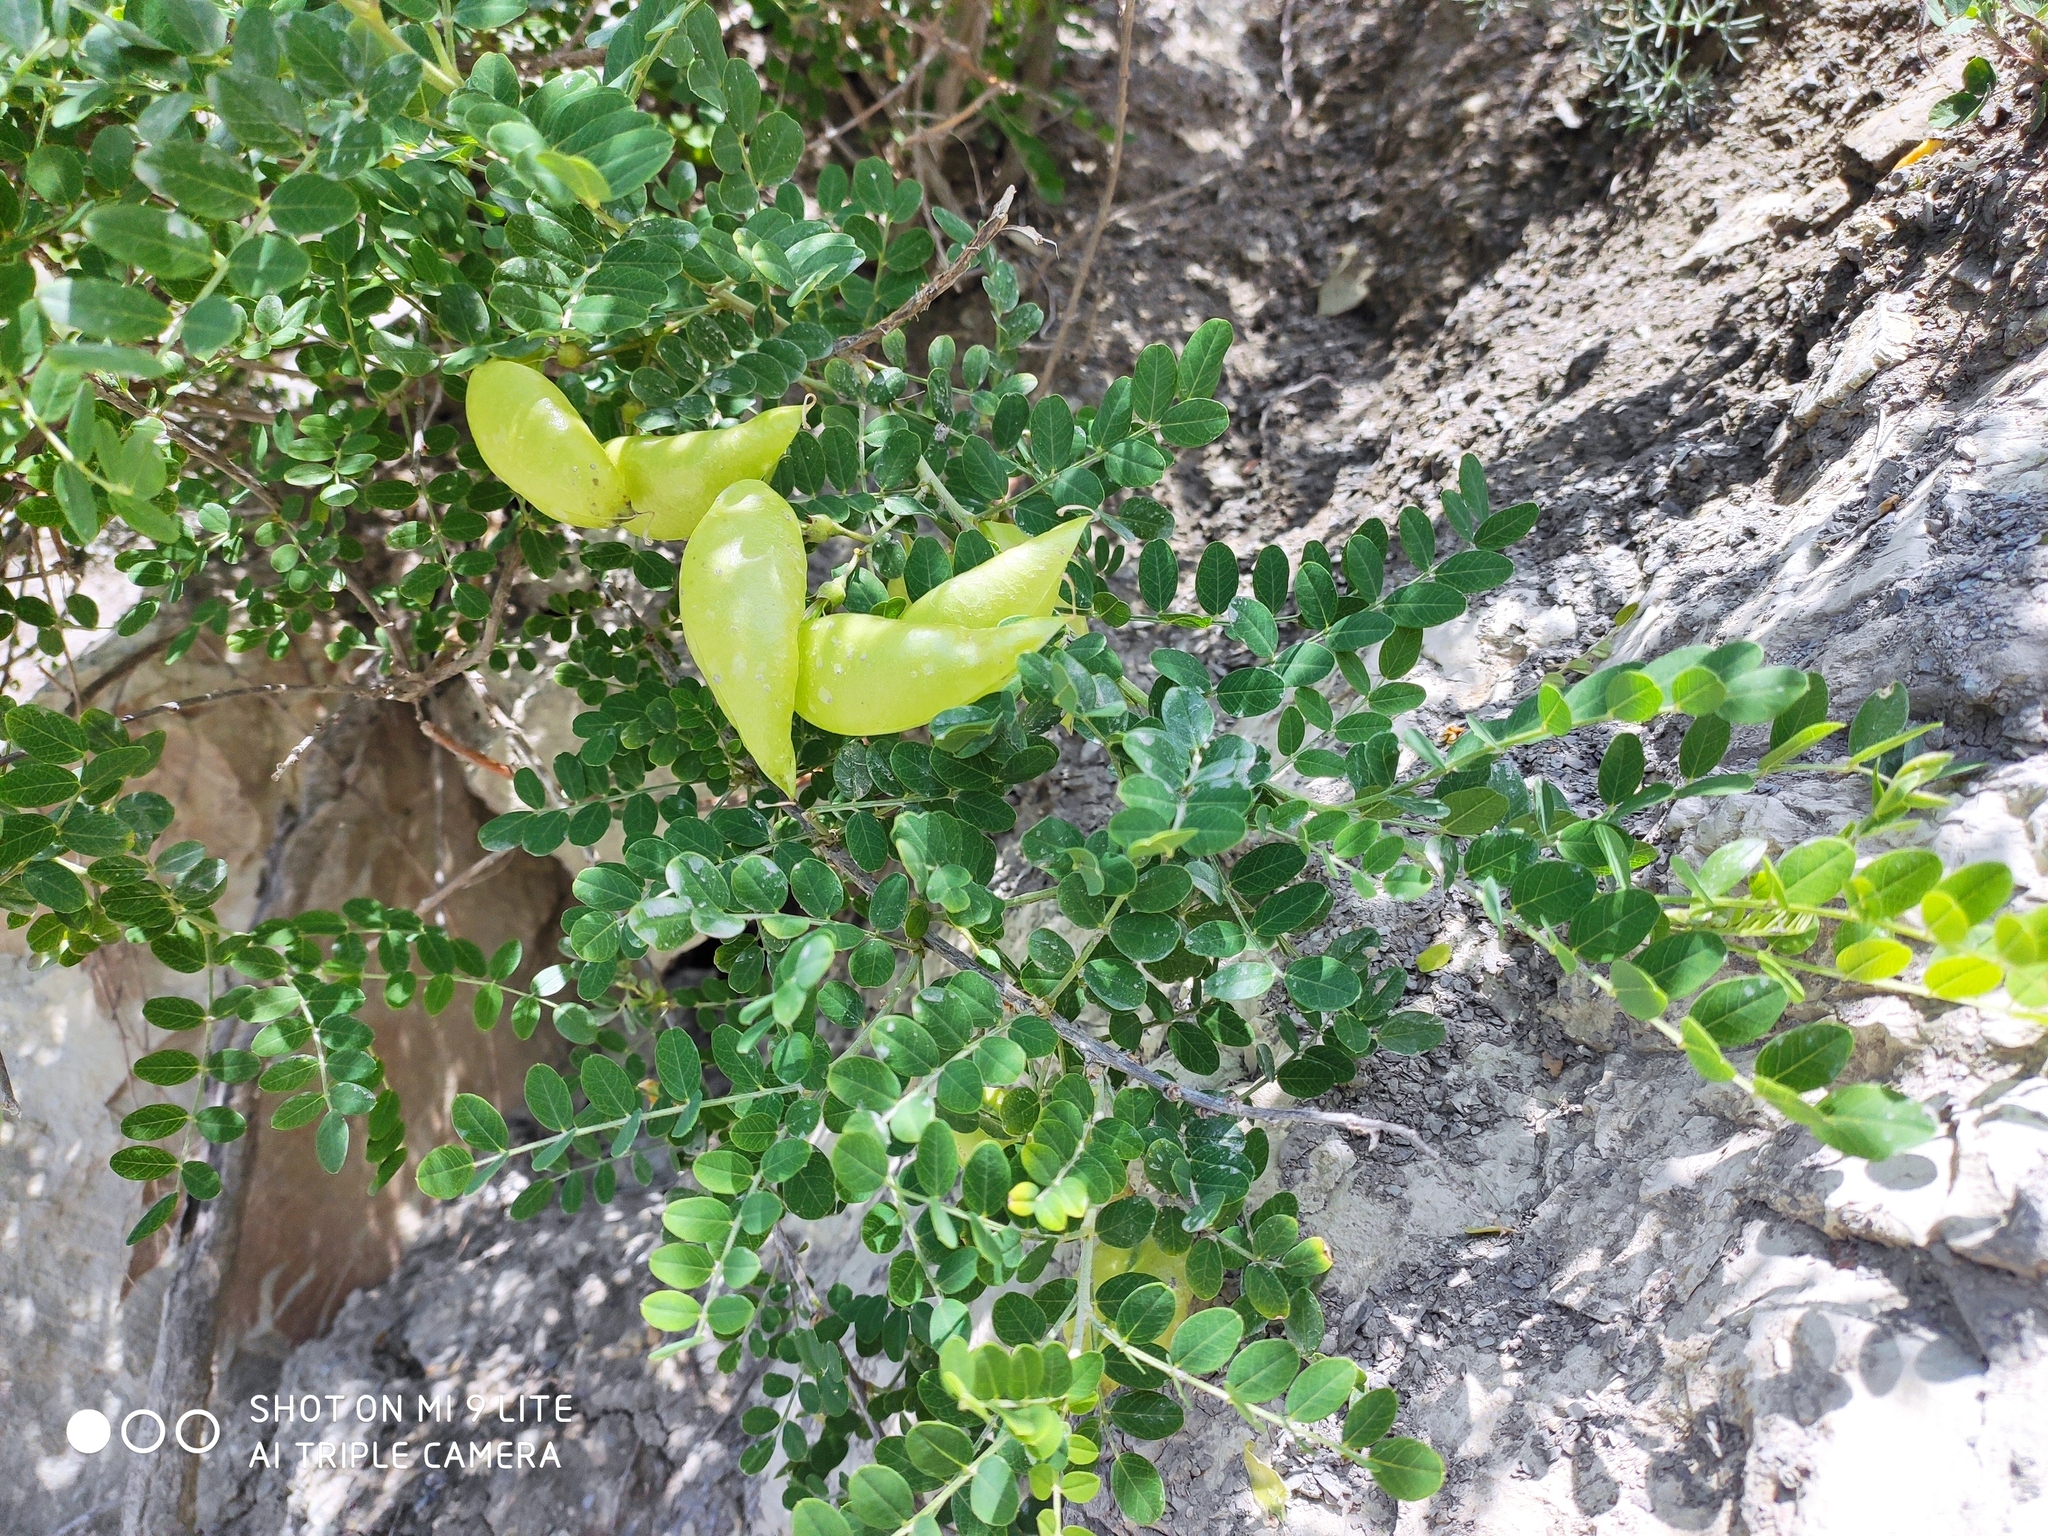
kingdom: Plantae
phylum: Tracheophyta
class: Magnoliopsida
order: Fabales
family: Fabaceae
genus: Colutea
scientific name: Colutea cilicica
